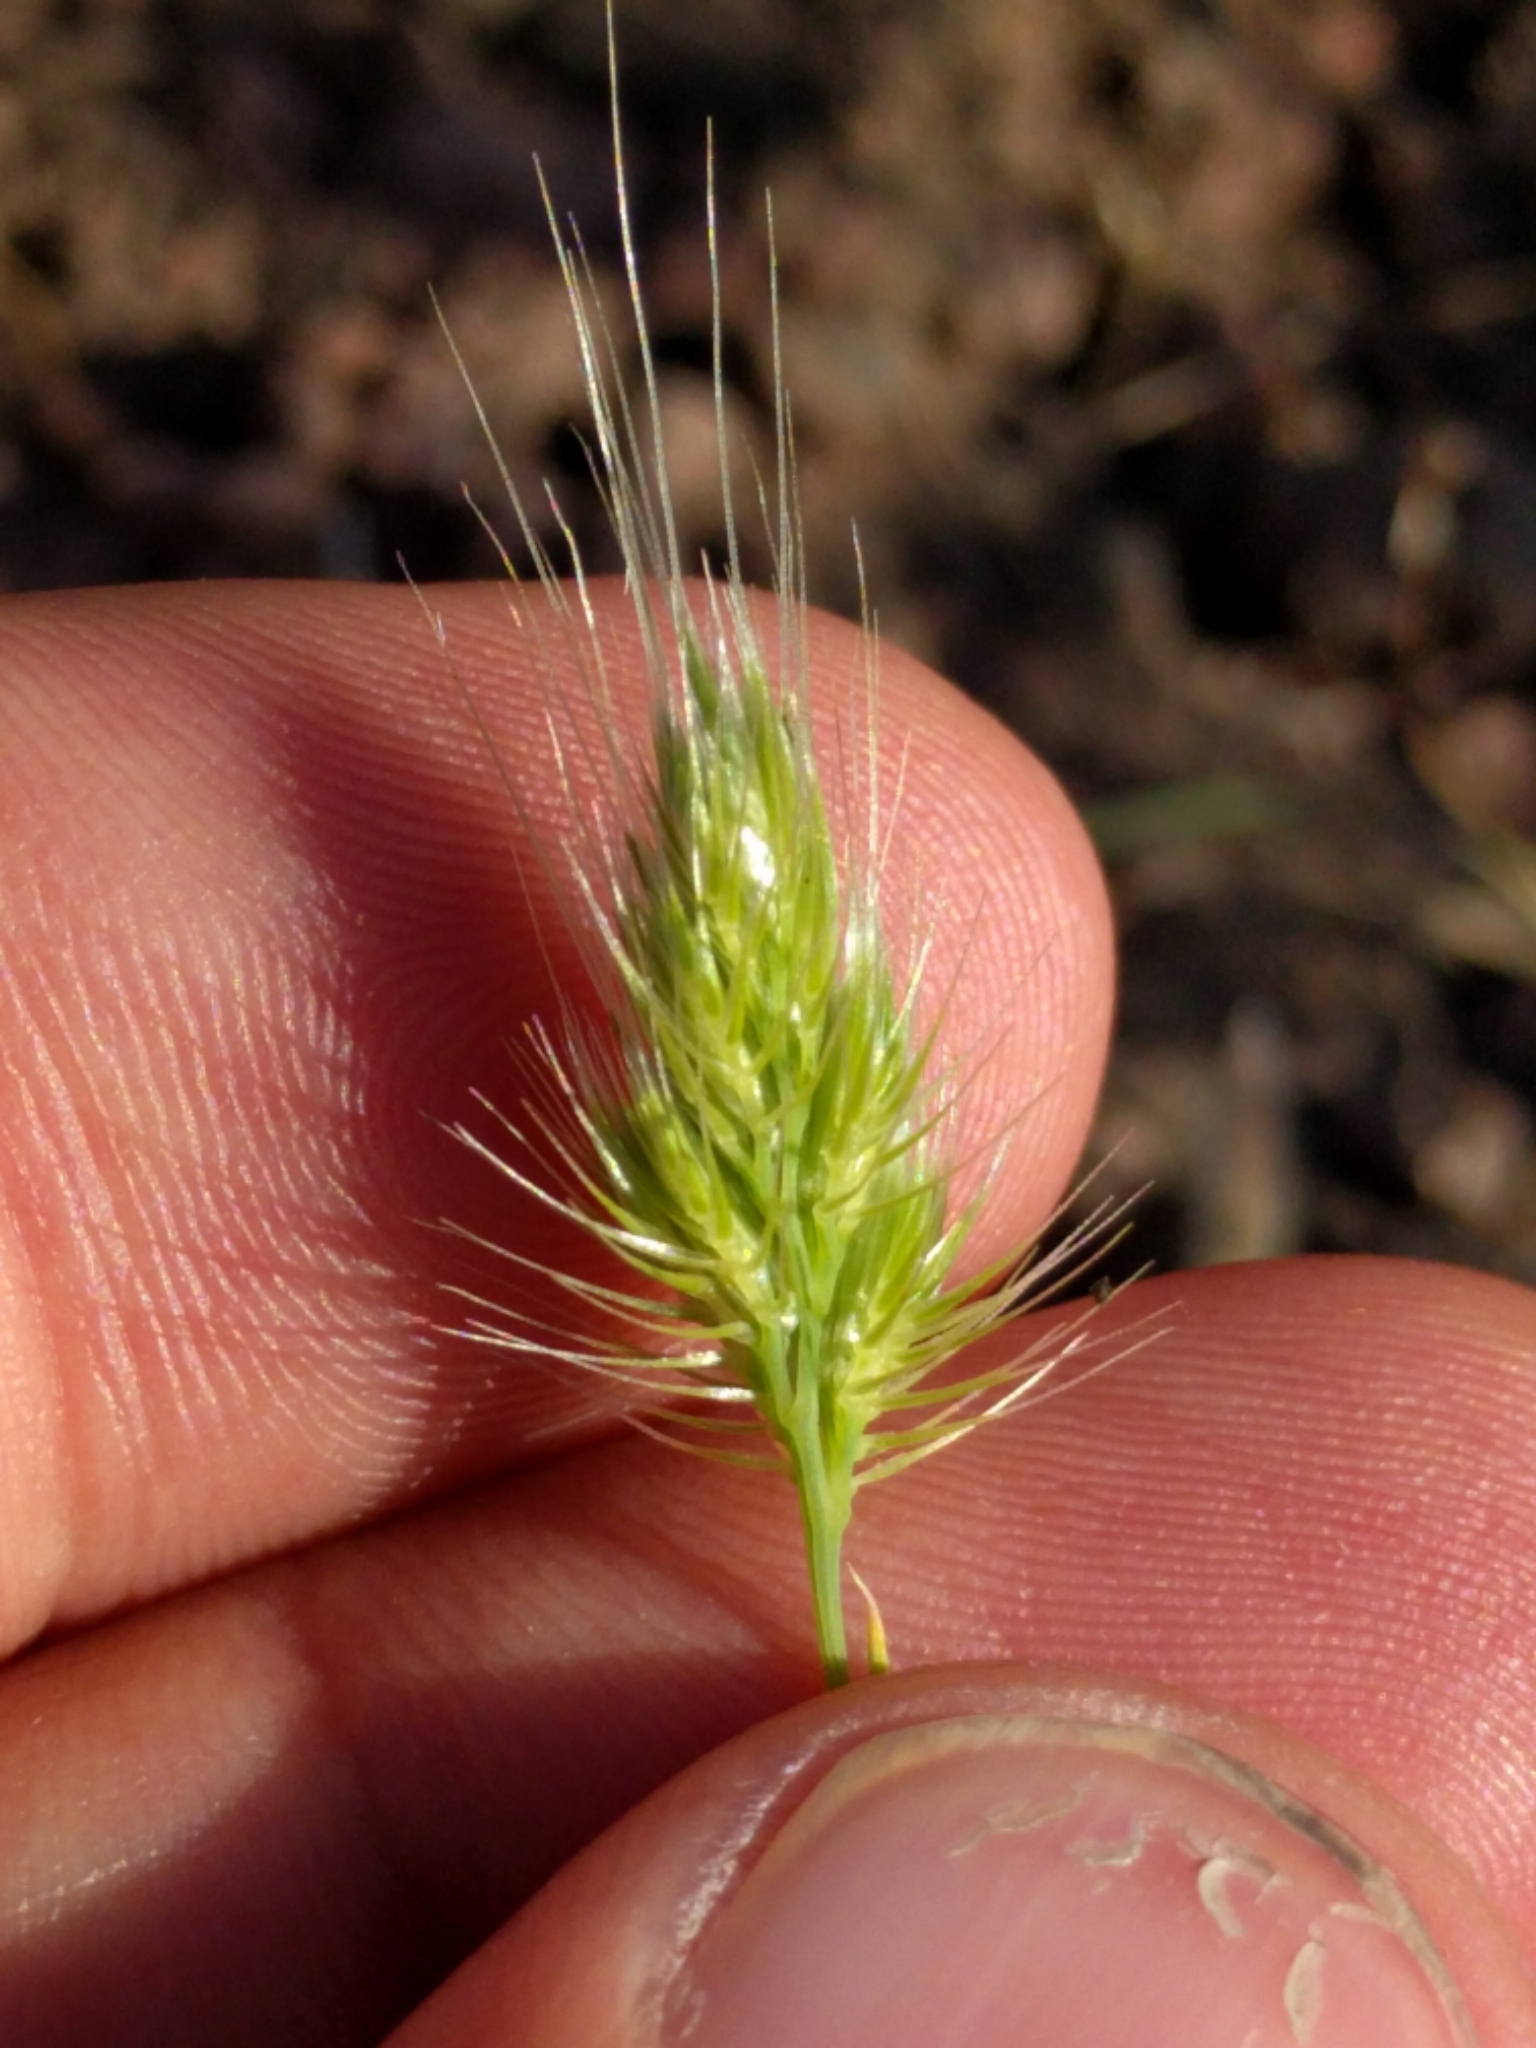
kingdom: Plantae
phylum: Tracheophyta
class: Liliopsida
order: Poales
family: Poaceae
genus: Cynosurus
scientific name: Cynosurus echinatus
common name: Rough dog's-tail
